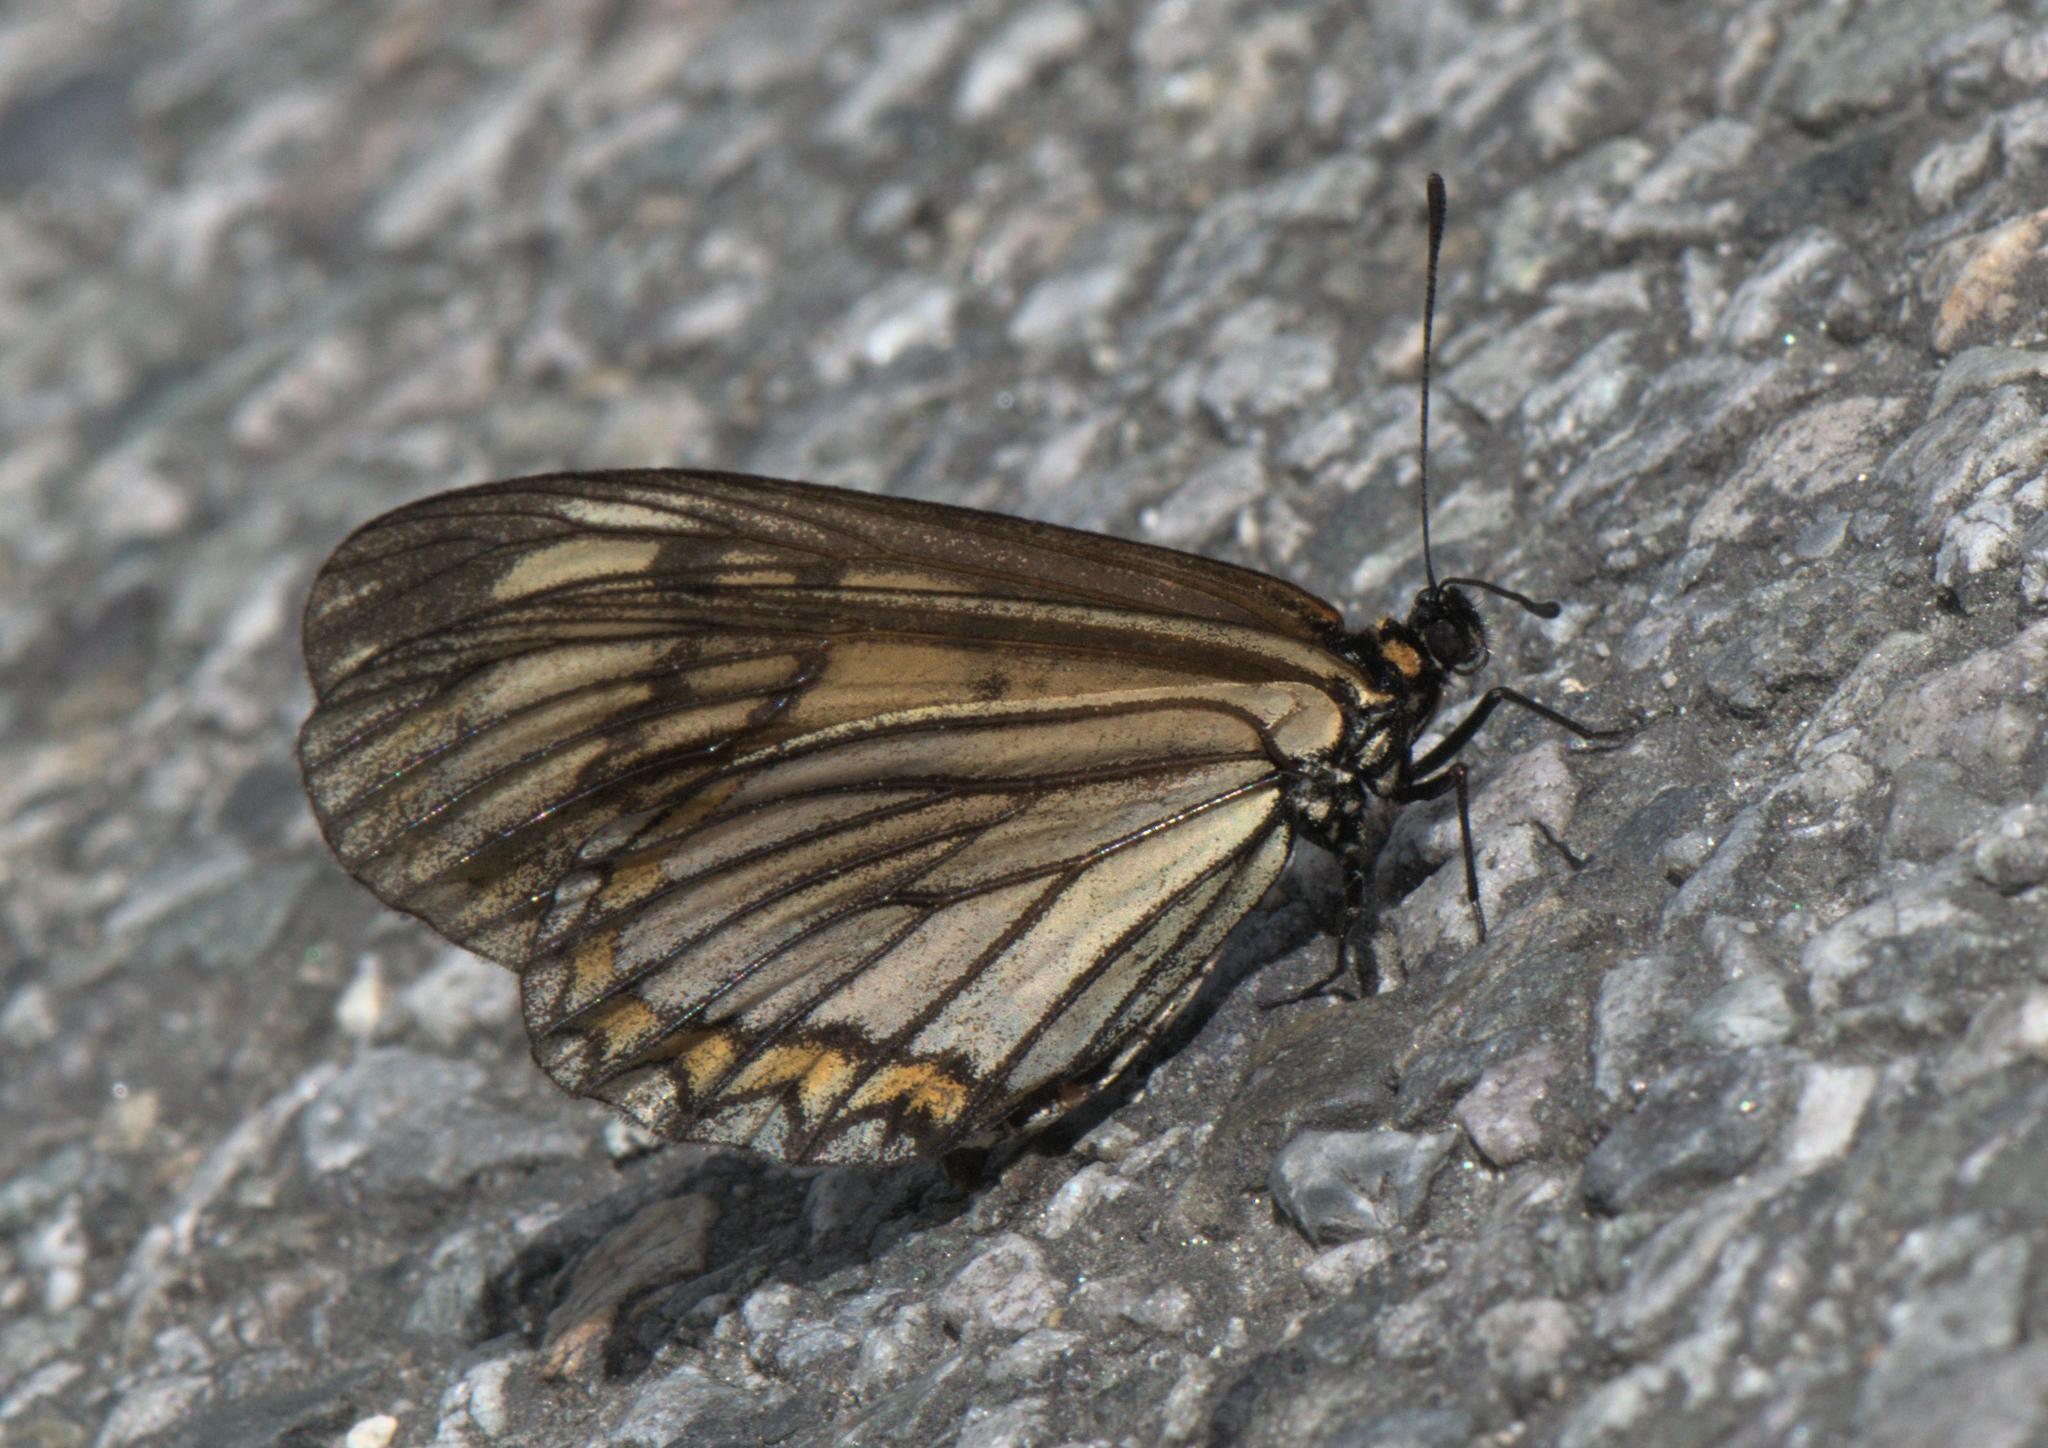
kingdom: Animalia
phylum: Arthropoda
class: Insecta
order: Lepidoptera
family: Nymphalidae
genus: Acraea
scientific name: Acraea Telchinia issoria
